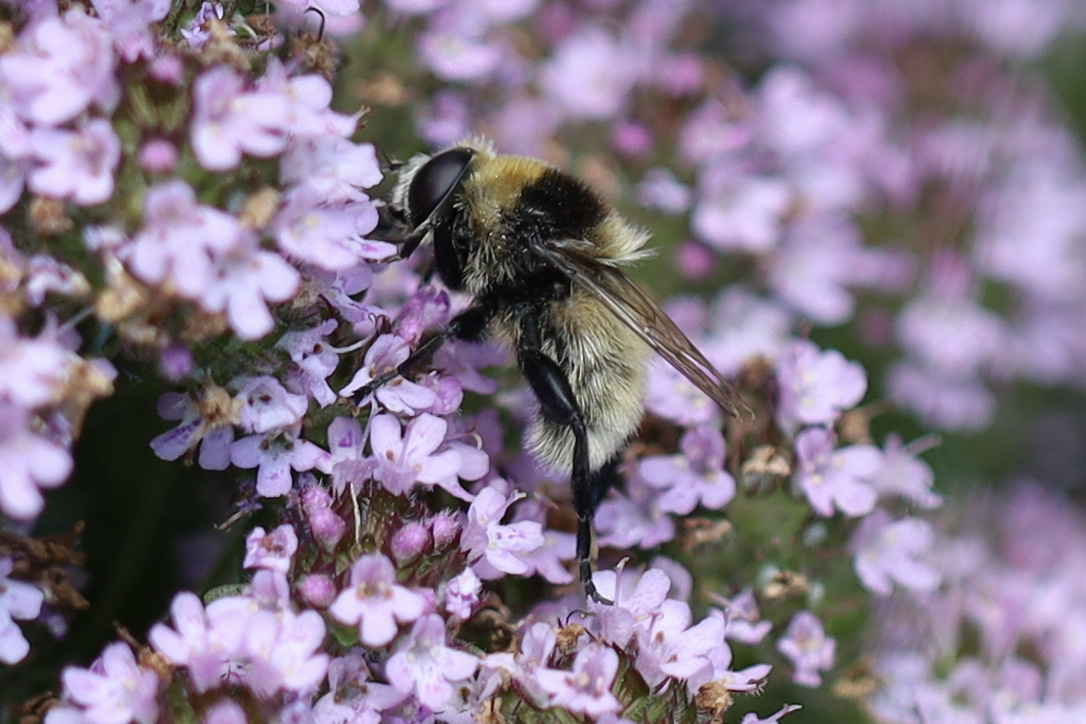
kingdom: Animalia
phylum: Arthropoda
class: Insecta
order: Diptera
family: Syrphidae
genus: Merodon
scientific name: Merodon equestris
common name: Greater bulb-fly
